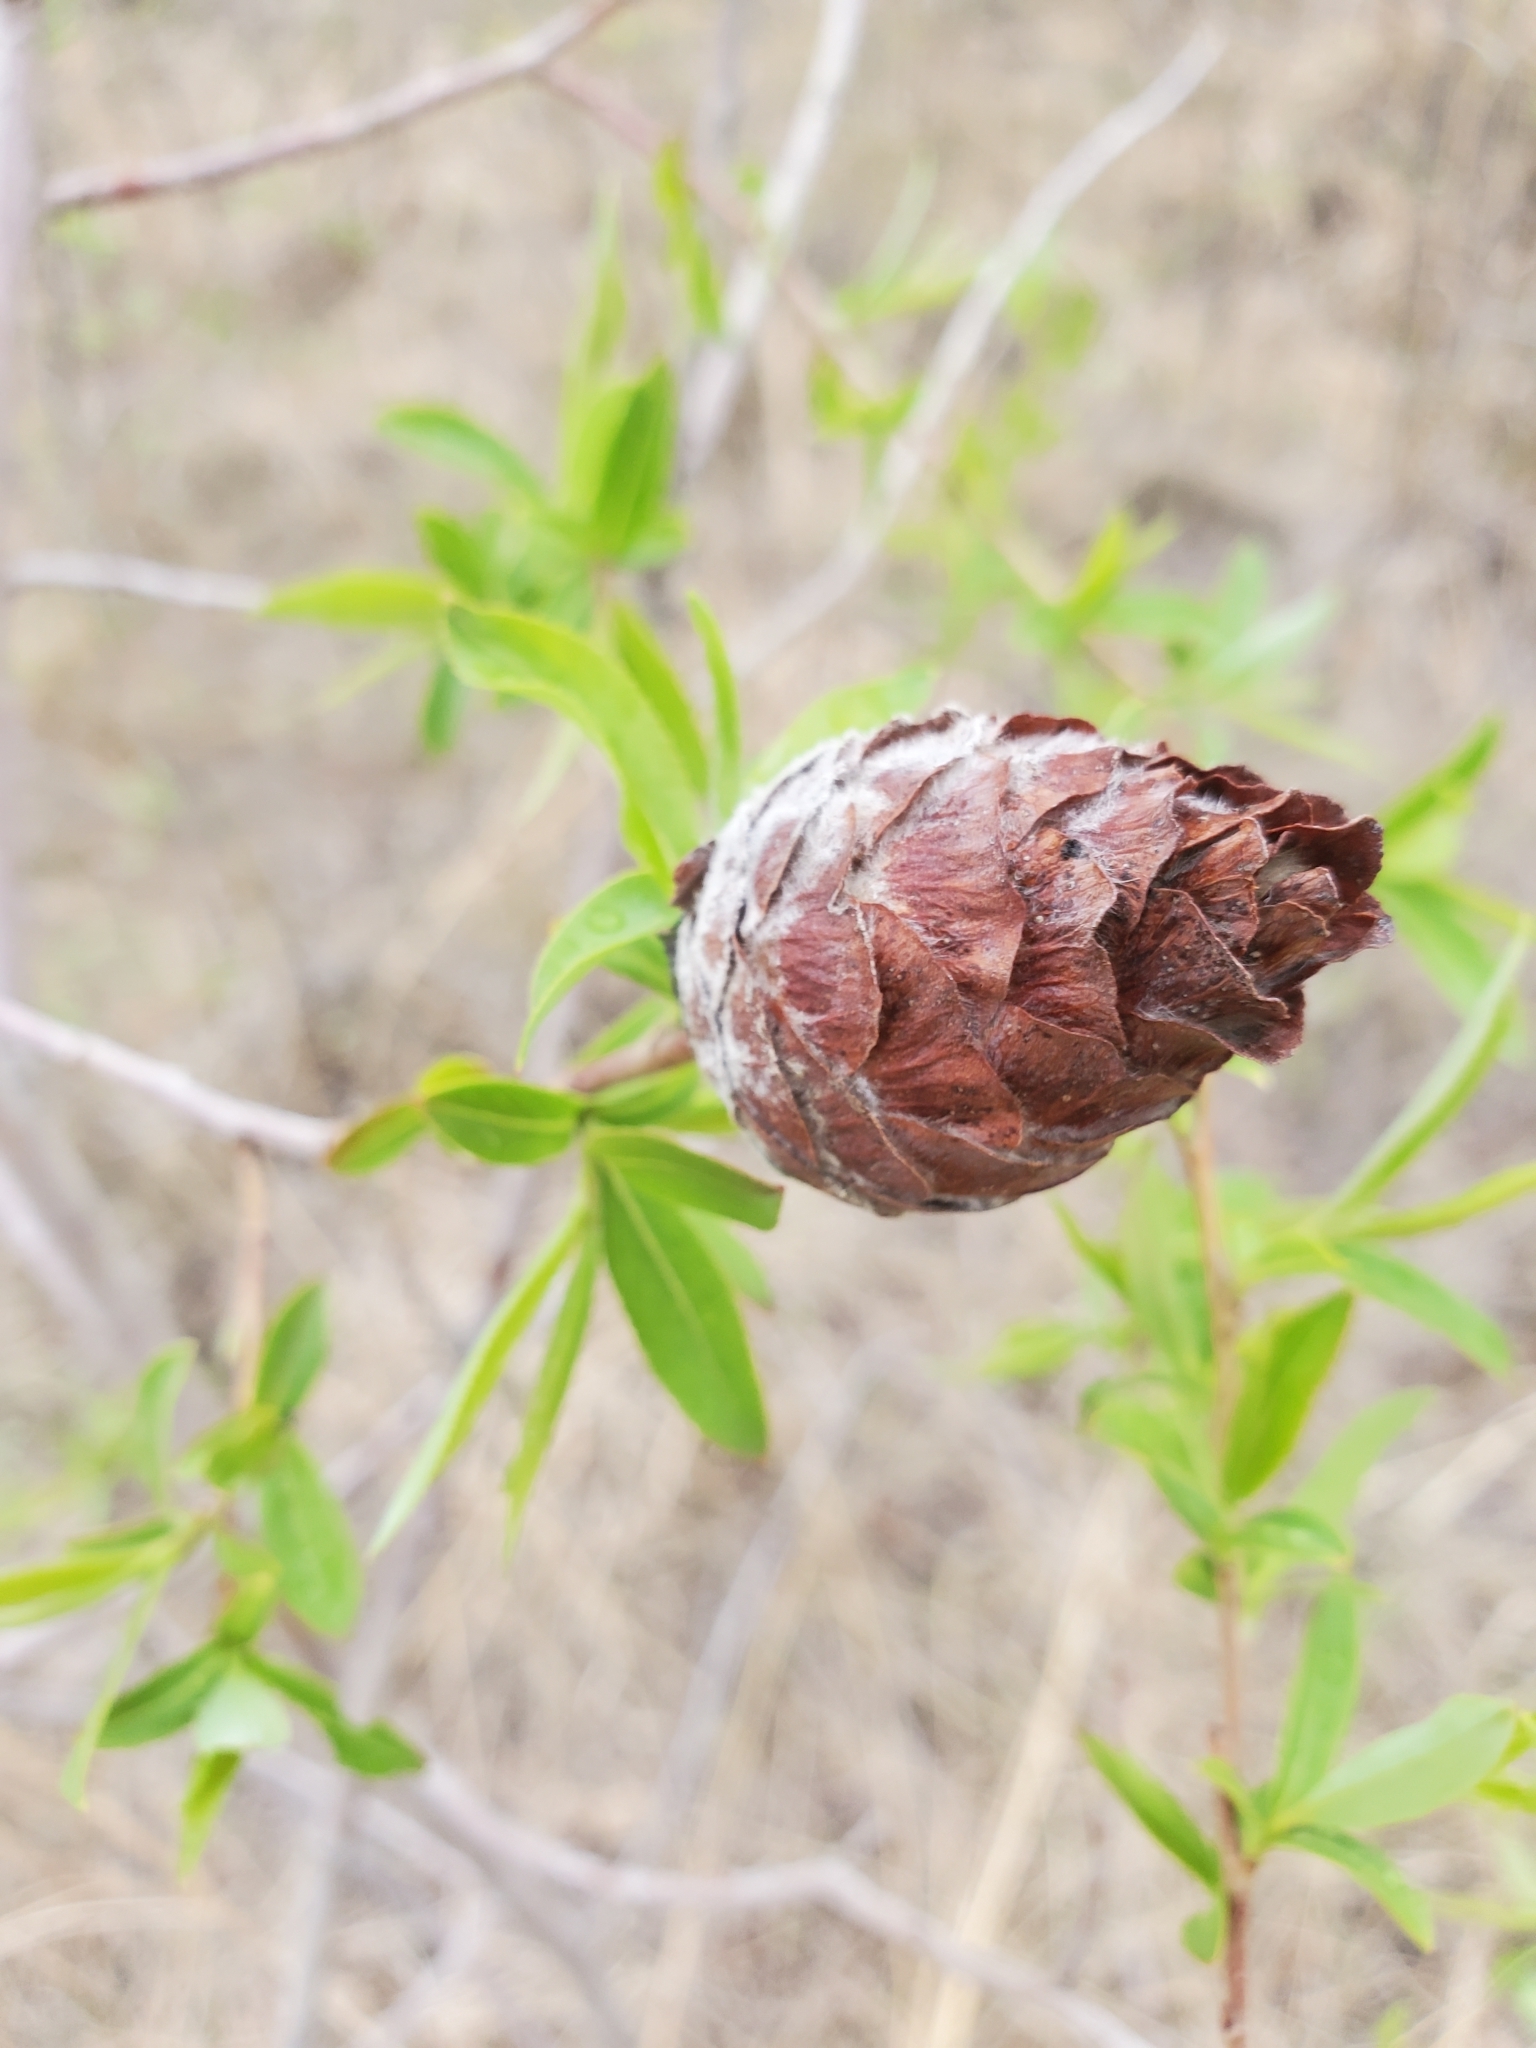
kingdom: Animalia
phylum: Arthropoda
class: Insecta
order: Diptera
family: Cecidomyiidae
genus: Rabdophaga
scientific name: Rabdophaga strobiloides
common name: Willow pinecone gall midge
